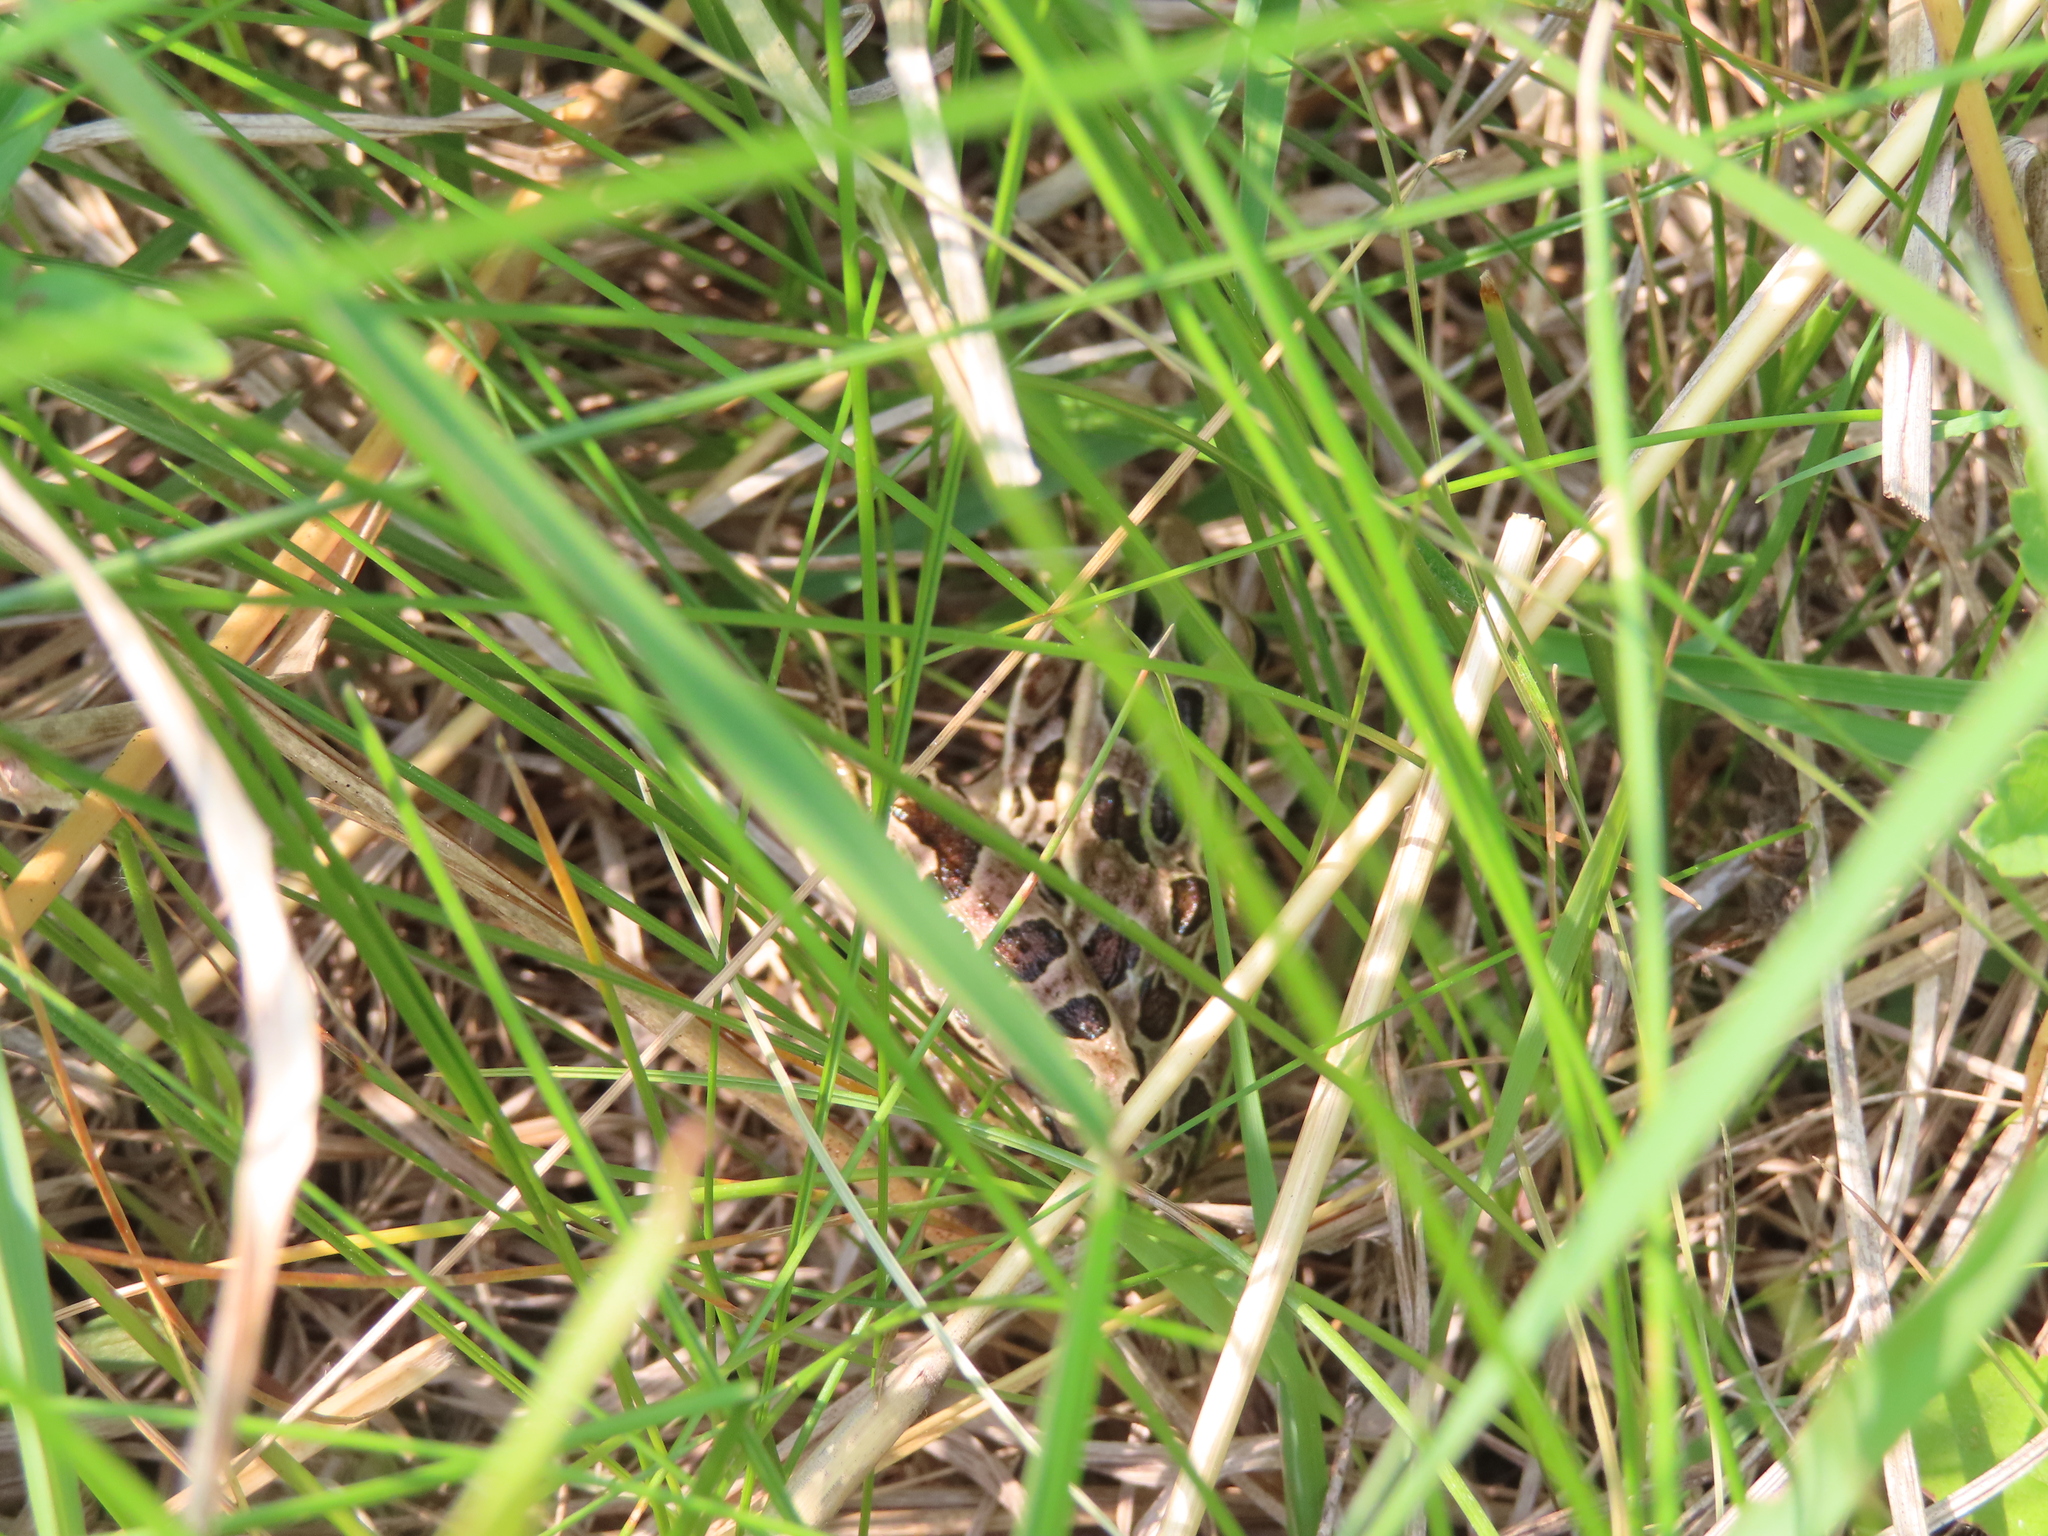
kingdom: Animalia
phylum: Chordata
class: Amphibia
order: Anura
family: Ranidae
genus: Lithobates
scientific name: Lithobates pipiens
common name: Northern leopard frog
